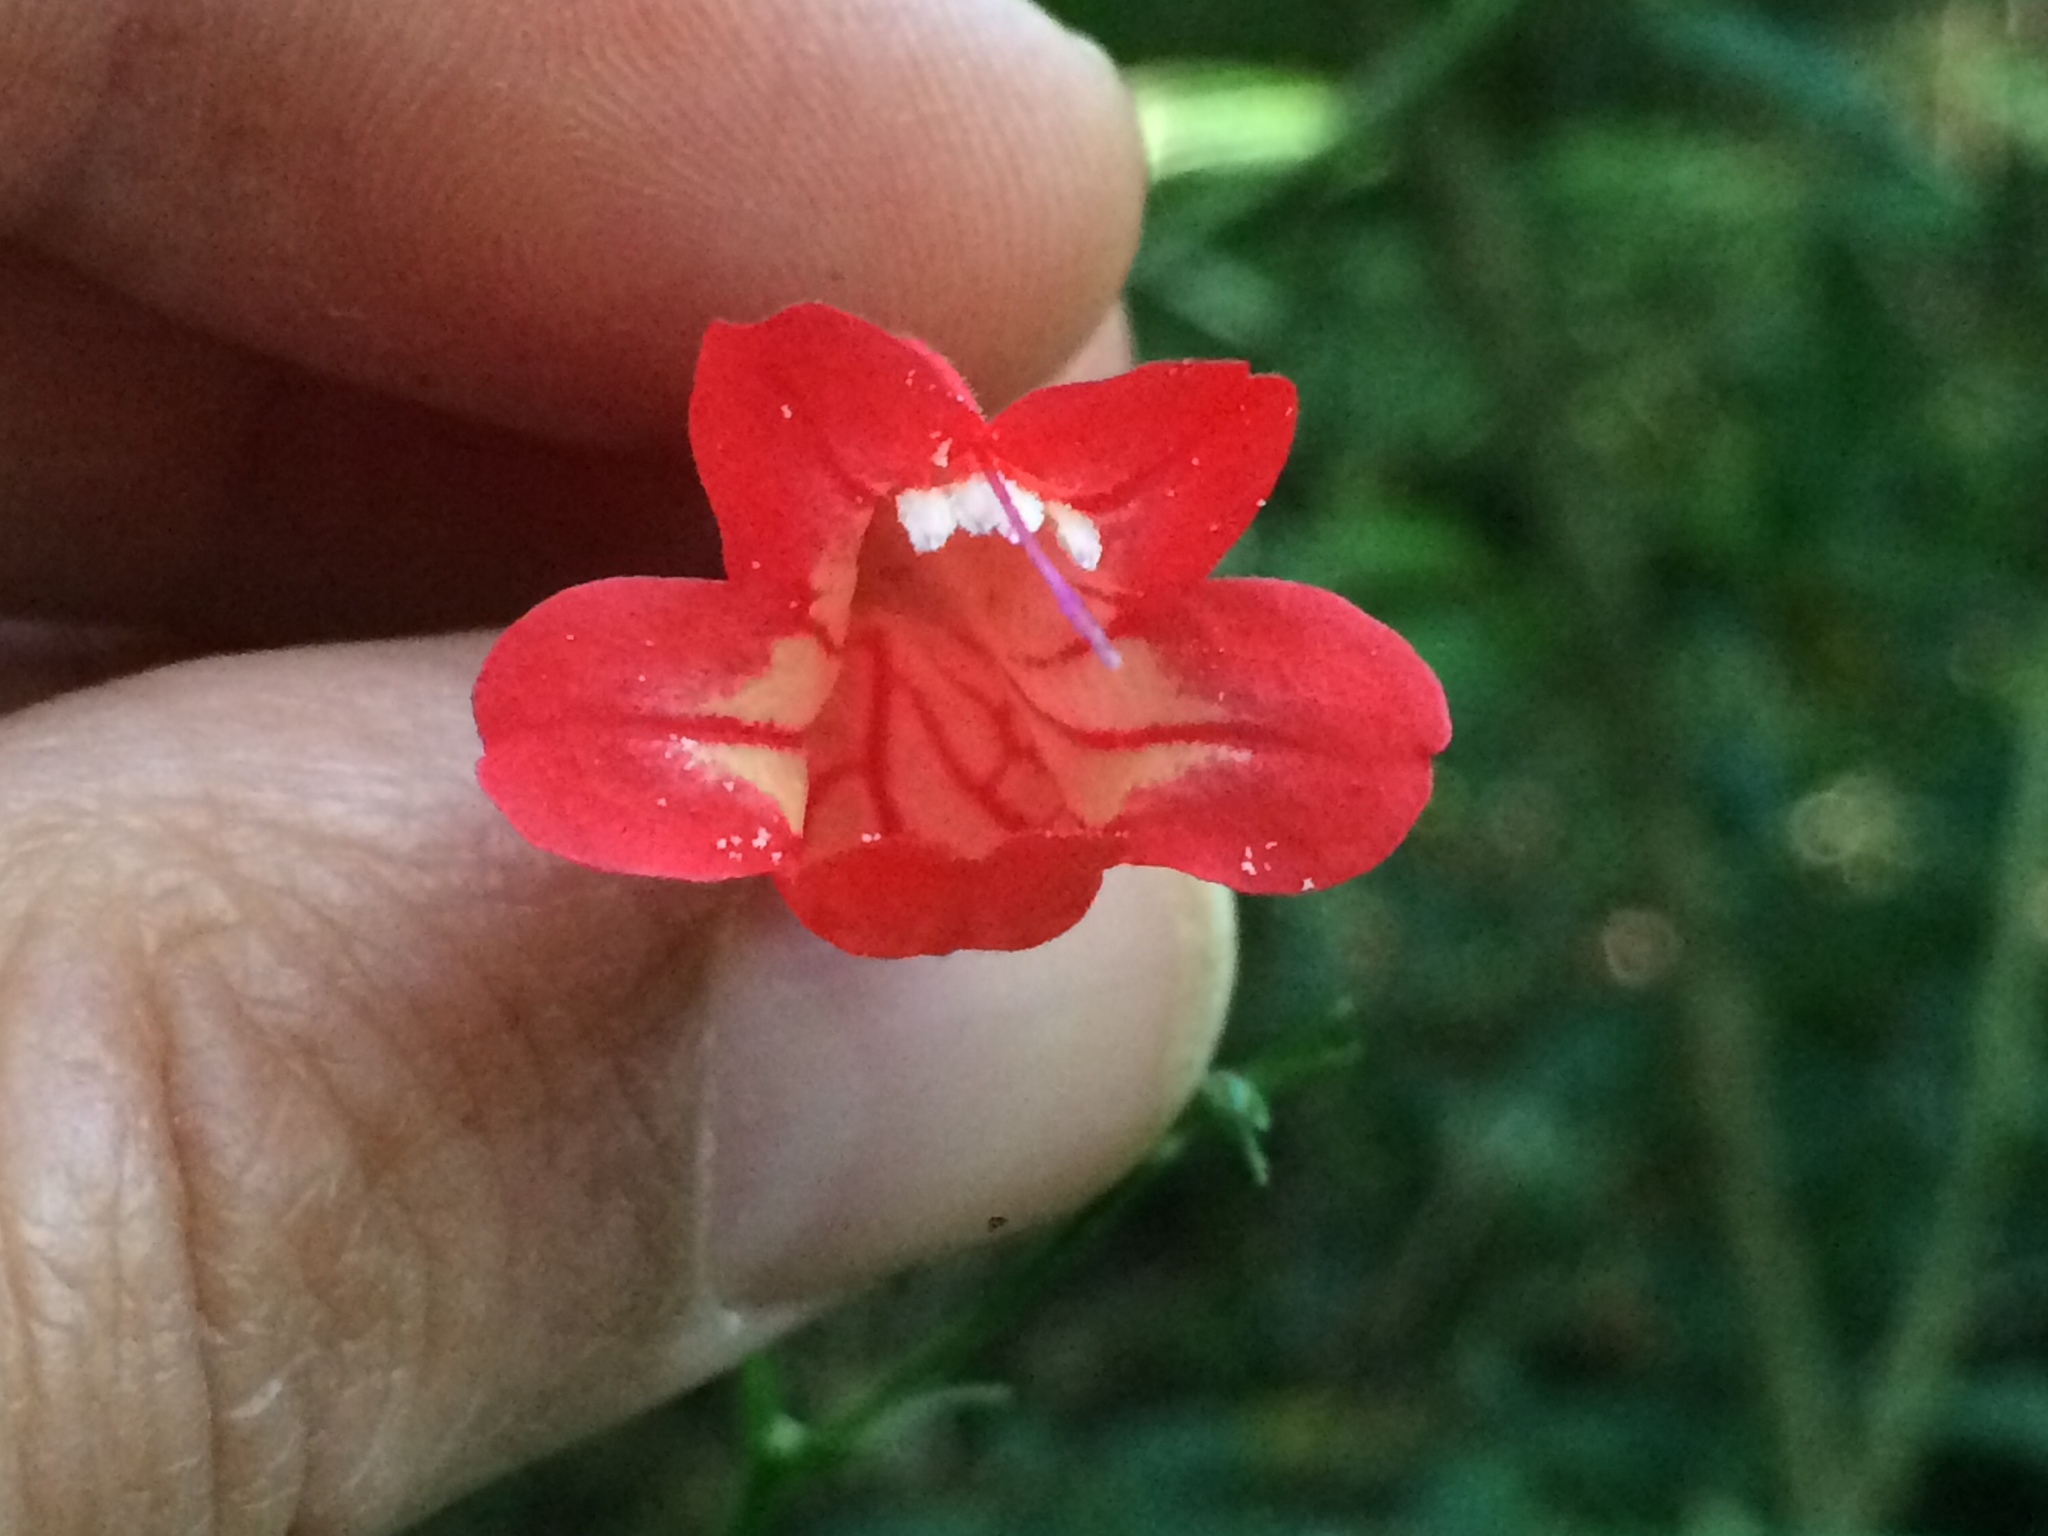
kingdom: Plantae
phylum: Tracheophyta
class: Magnoliopsida
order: Lamiales
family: Acanthaceae
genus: Ruellia
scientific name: Ruellia brevifolia
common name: Tropical wild petunia
